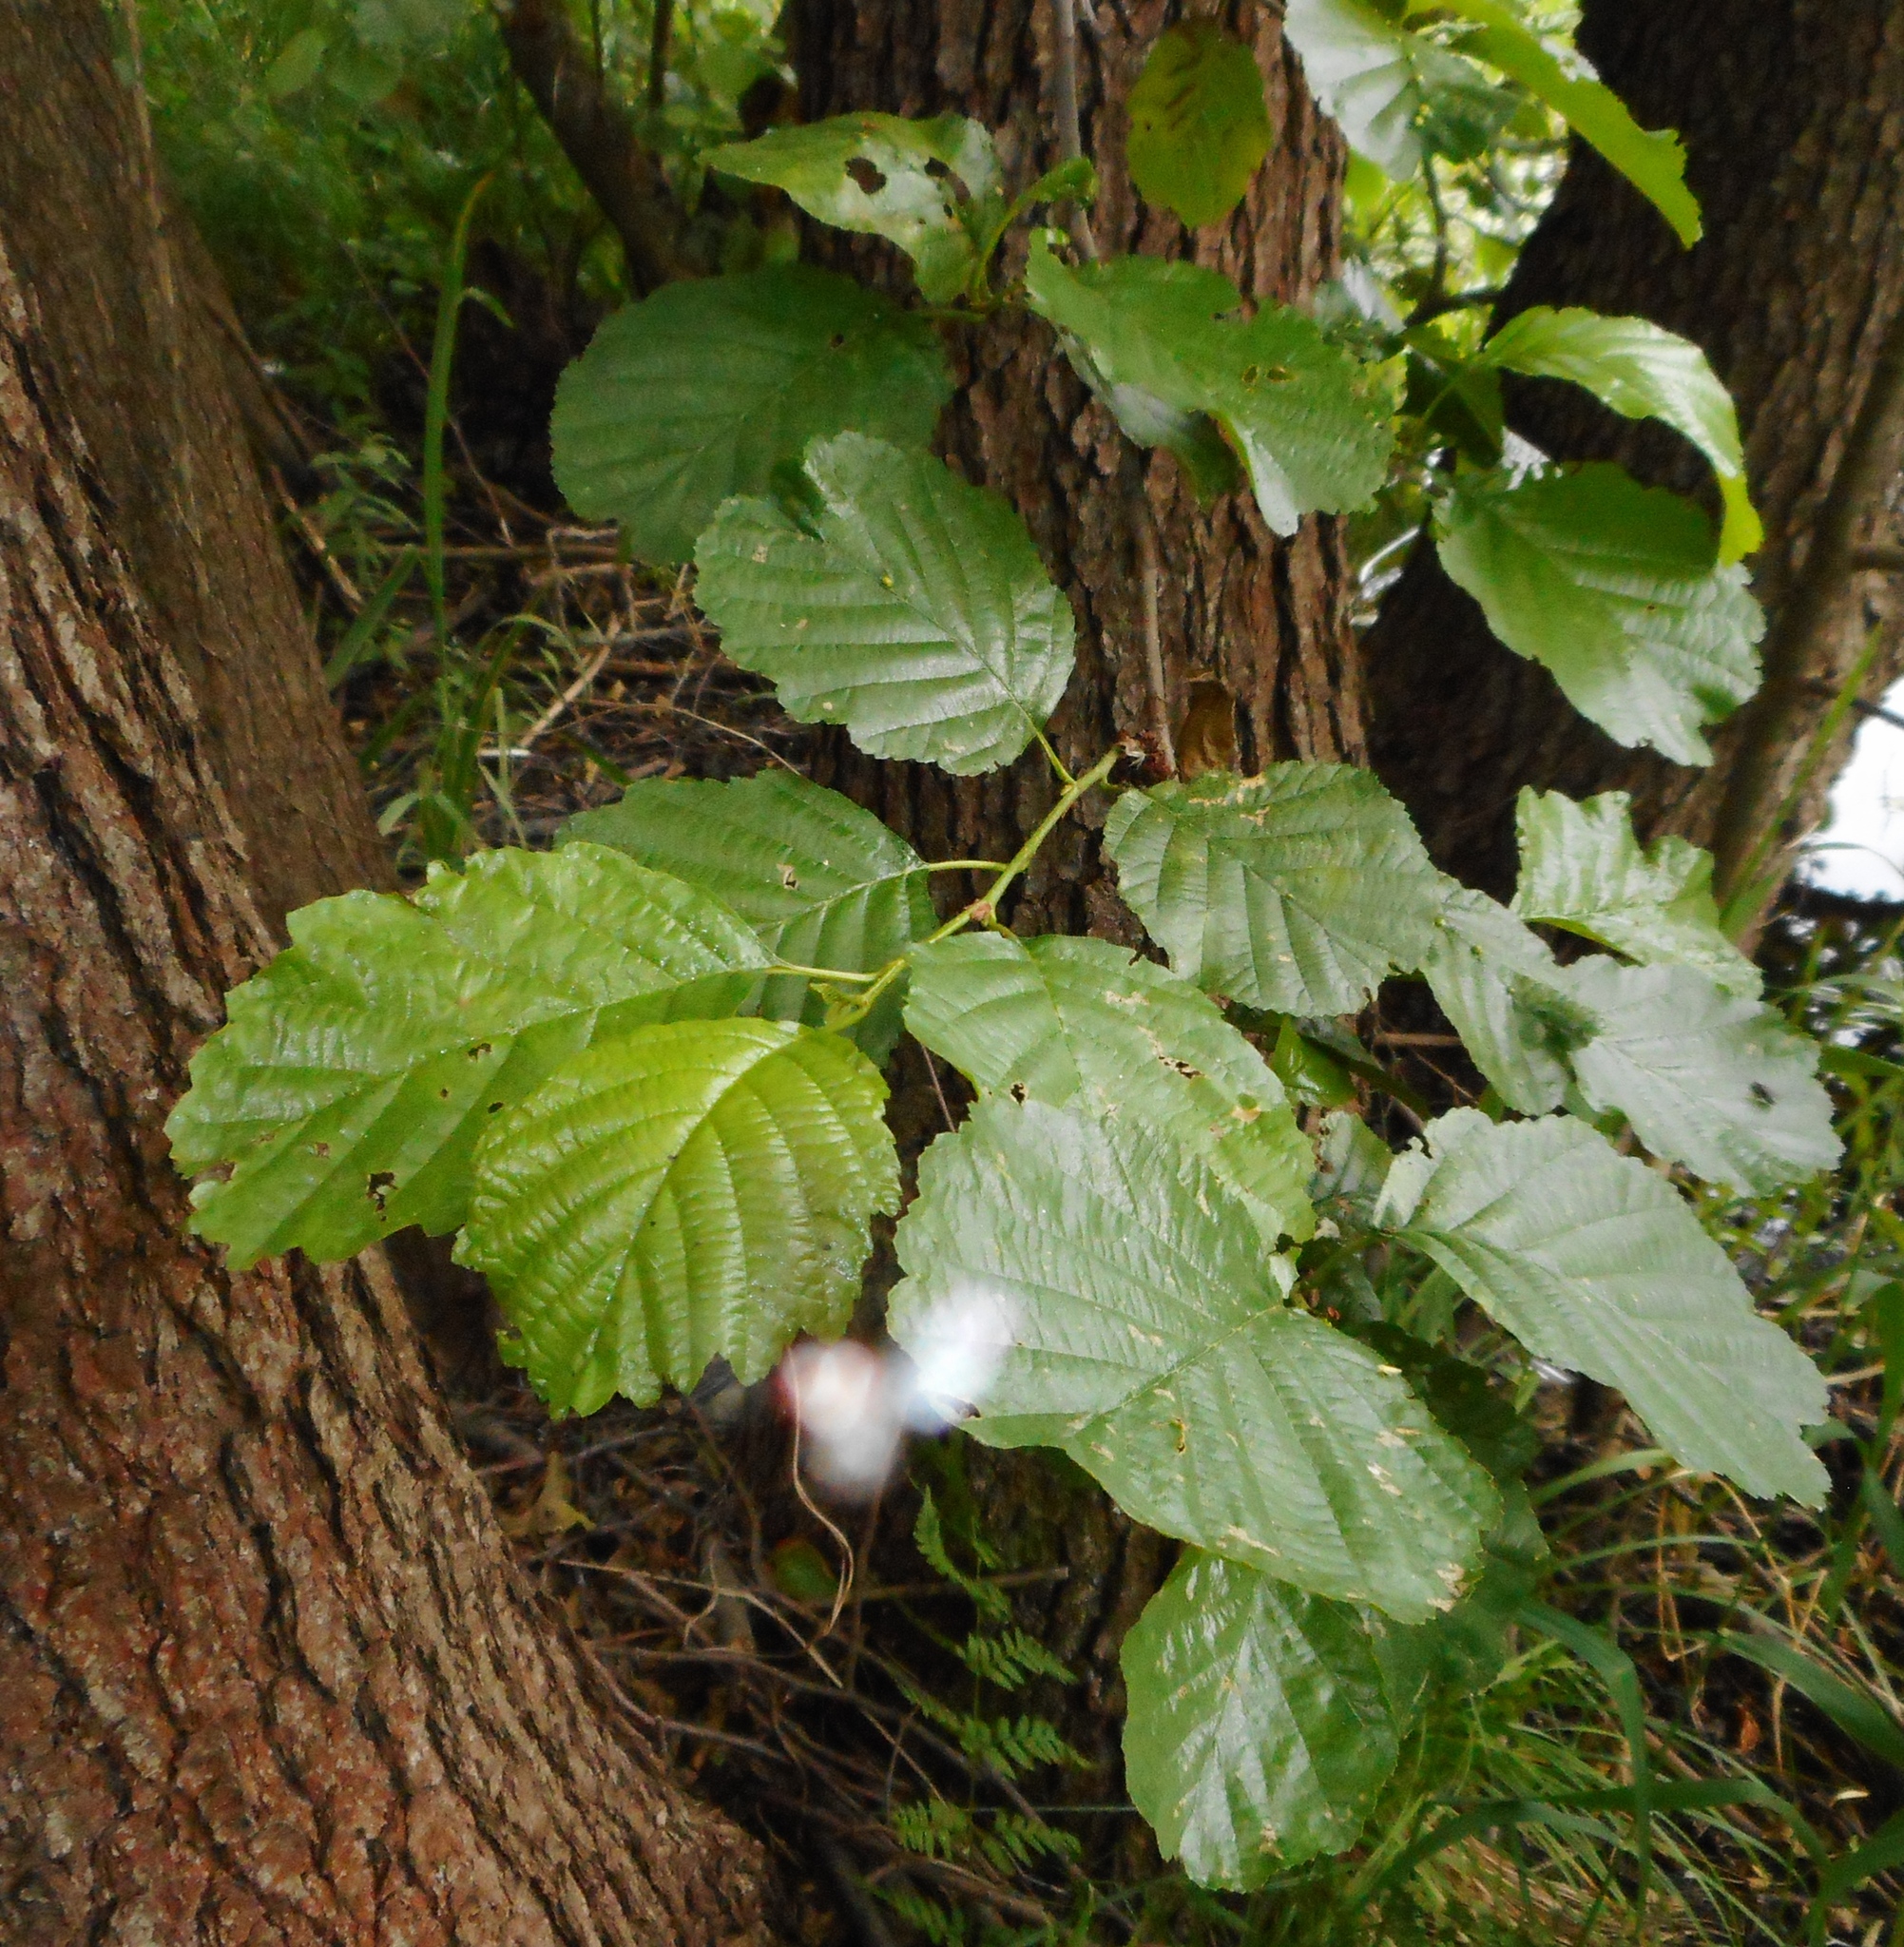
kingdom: Plantae
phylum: Tracheophyta
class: Magnoliopsida
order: Fagales
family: Betulaceae
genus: Alnus
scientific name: Alnus glutinosa
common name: Black alder
